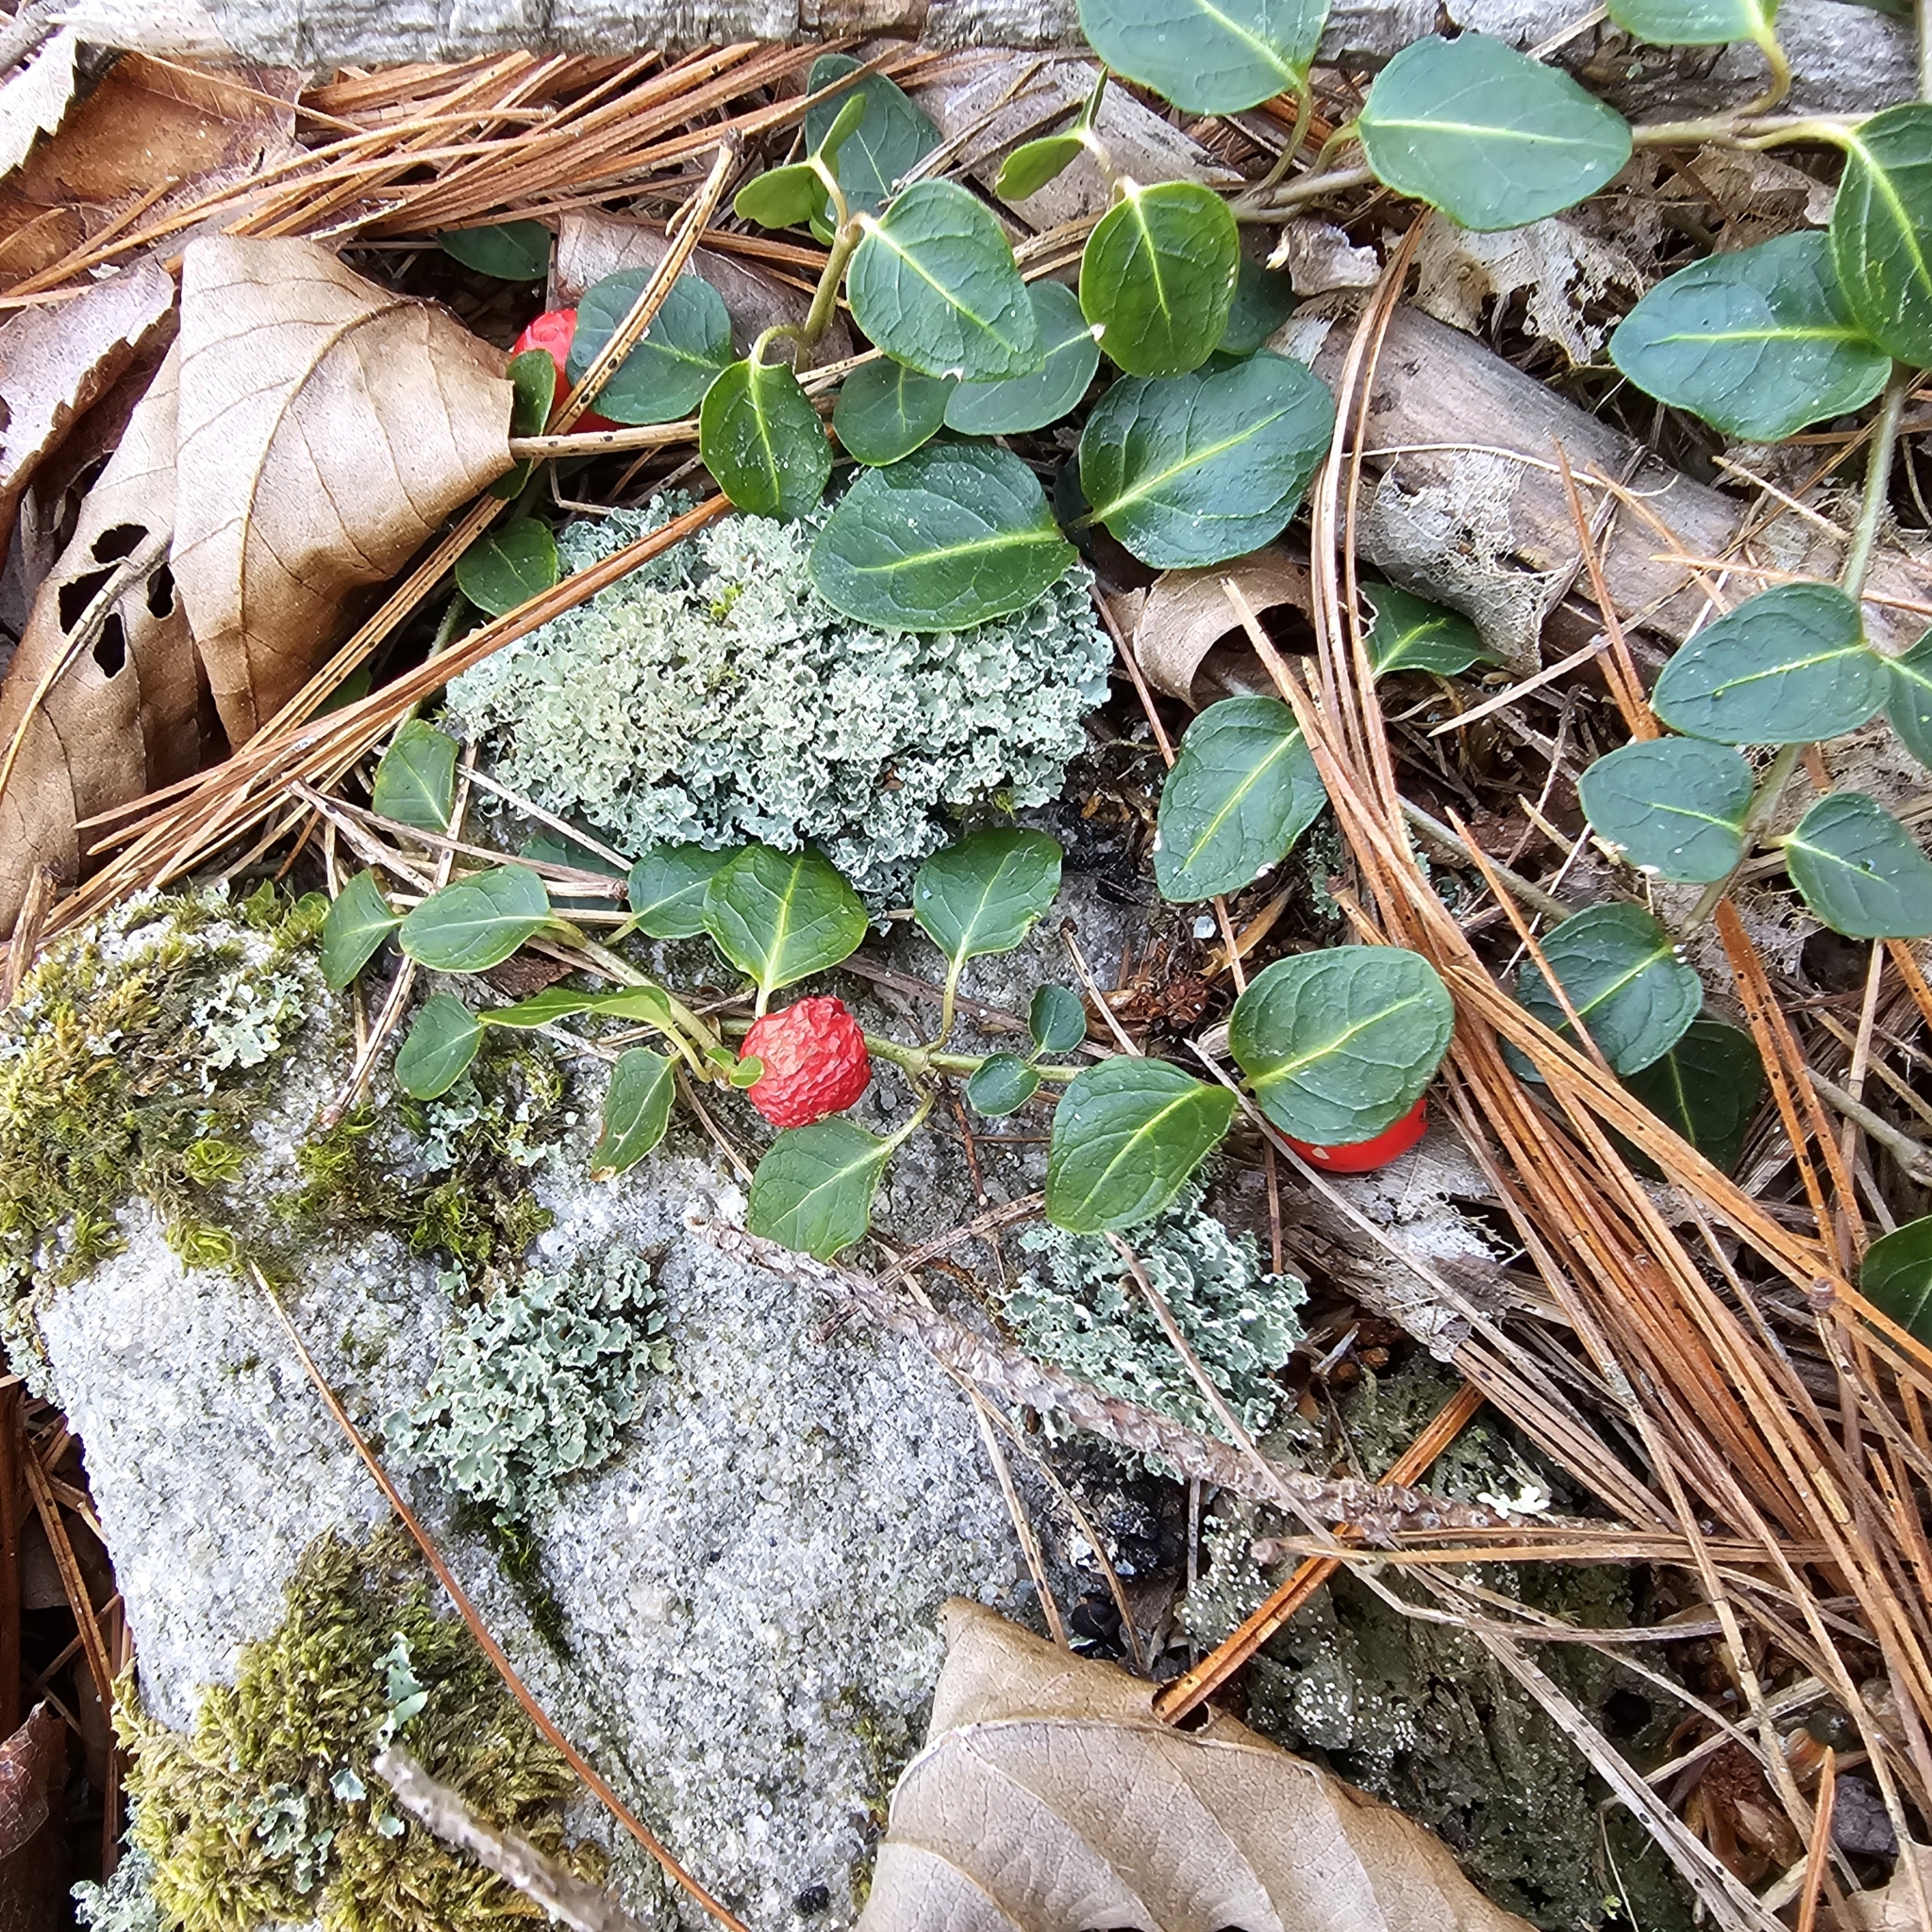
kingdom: Plantae
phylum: Tracheophyta
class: Magnoliopsida
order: Gentianales
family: Rubiaceae
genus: Mitchella
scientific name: Mitchella repens
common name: Partridge-berry
